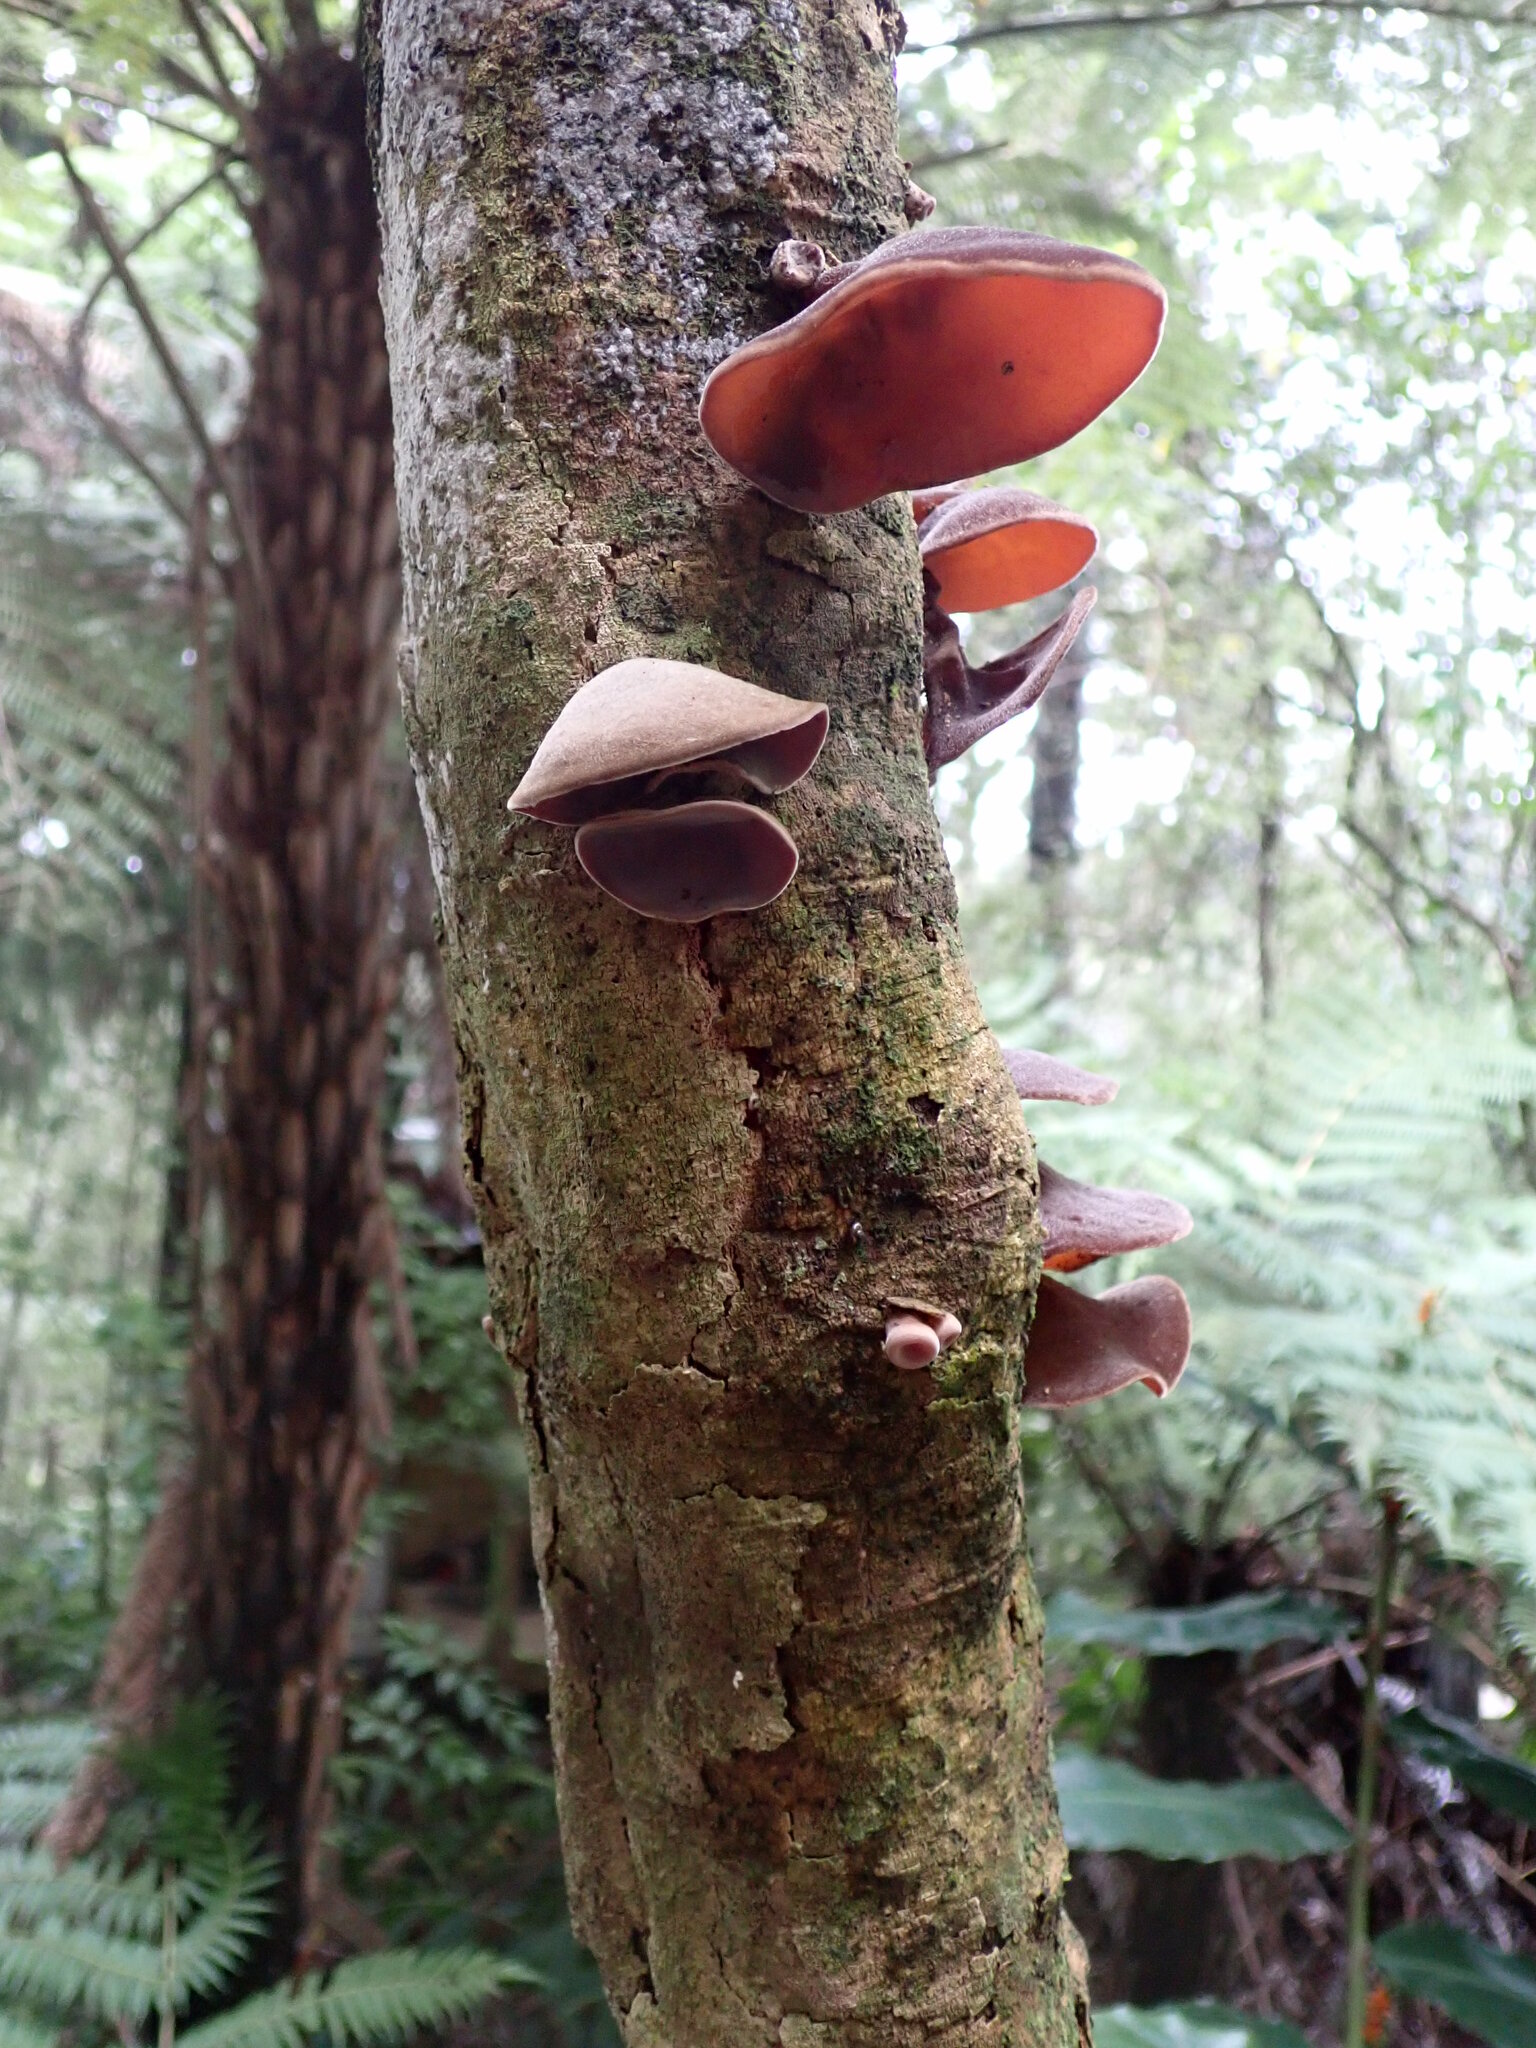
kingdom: Fungi
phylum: Basidiomycota
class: Agaricomycetes
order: Auriculariales
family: Auriculariaceae
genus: Auricularia
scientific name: Auricularia cornea
